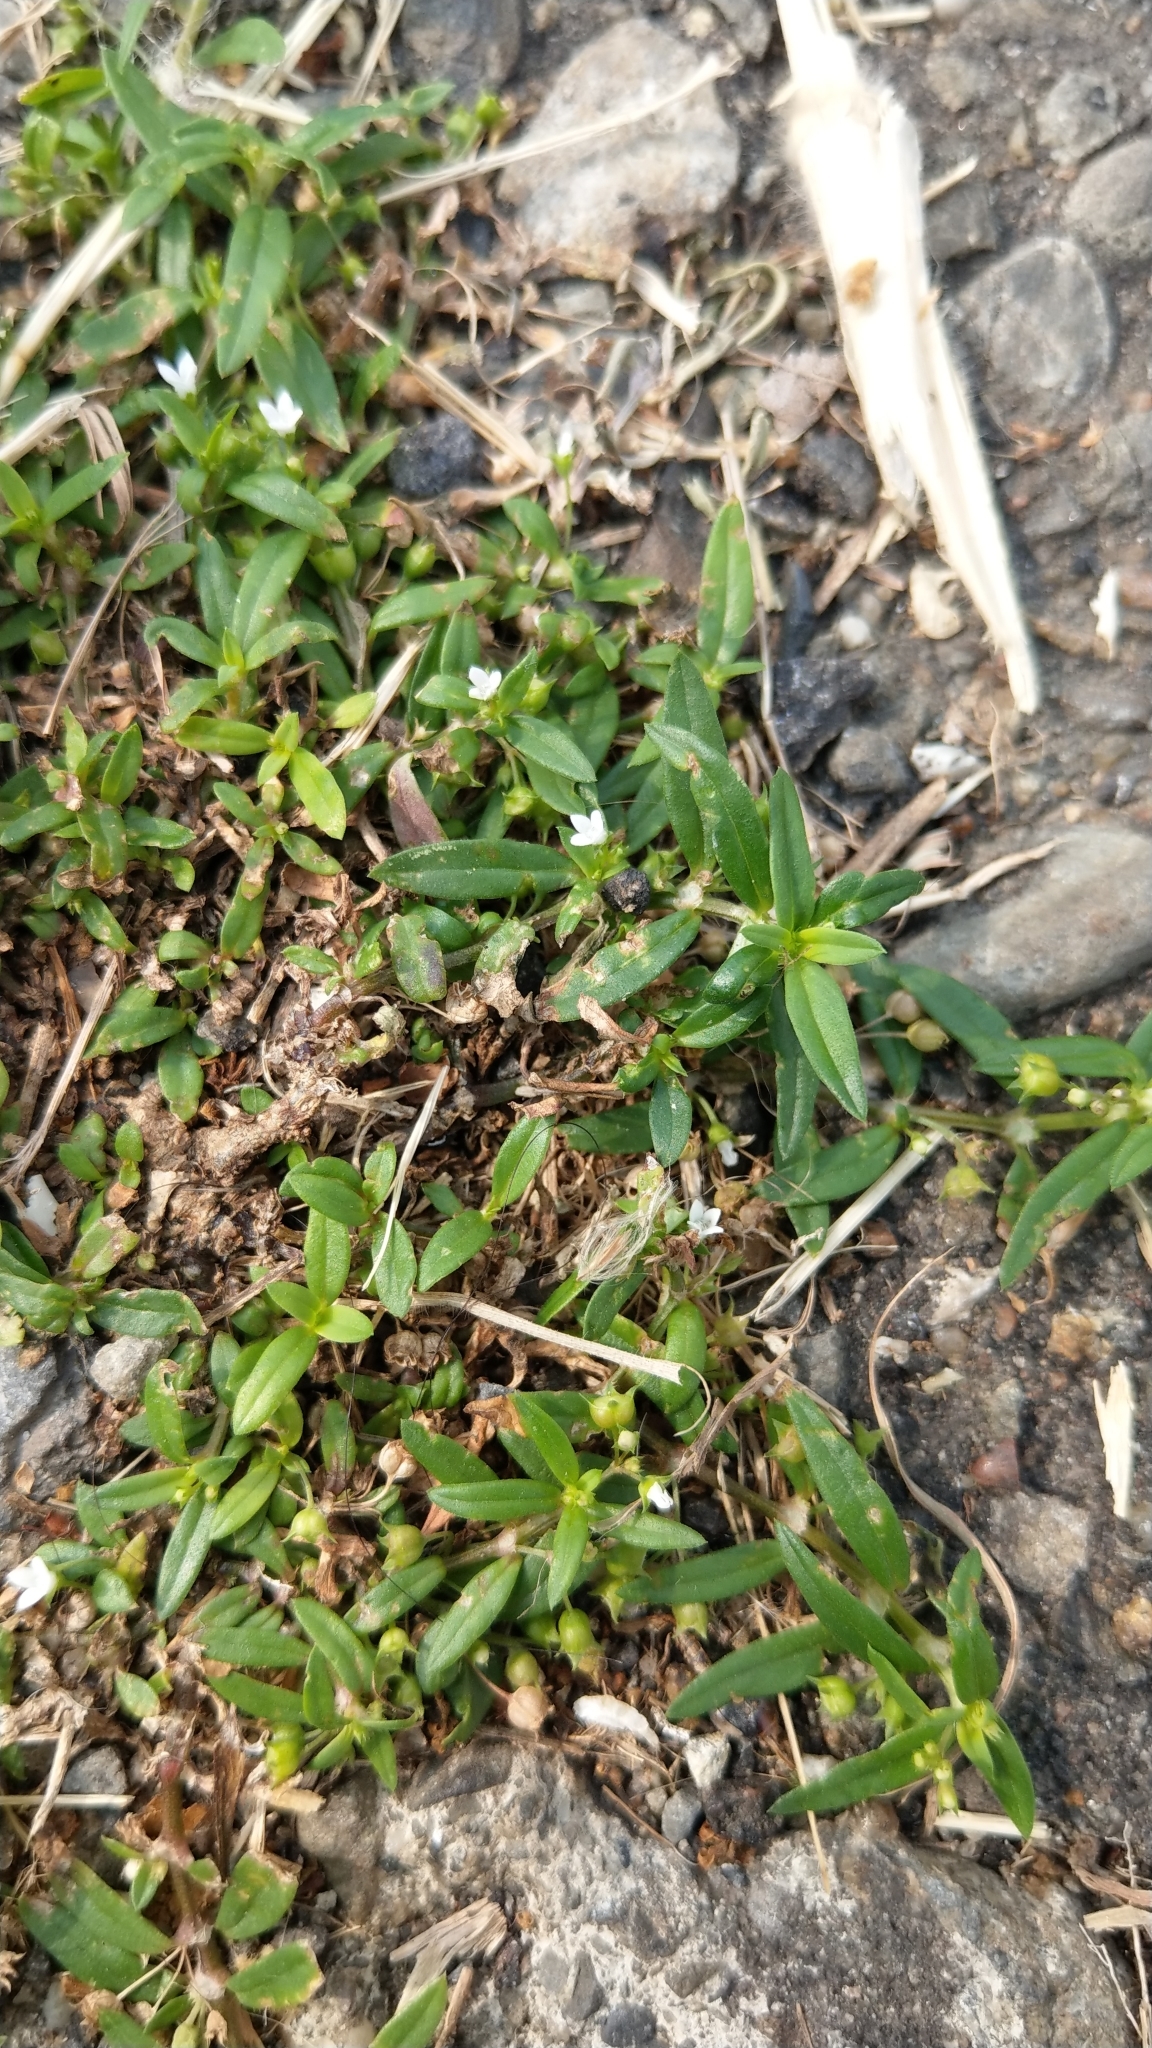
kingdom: Plantae
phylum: Tracheophyta
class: Magnoliopsida
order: Gentianales
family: Rubiaceae
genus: Oldenlandia
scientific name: Oldenlandia corymbosa
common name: Flat-top mille graines
